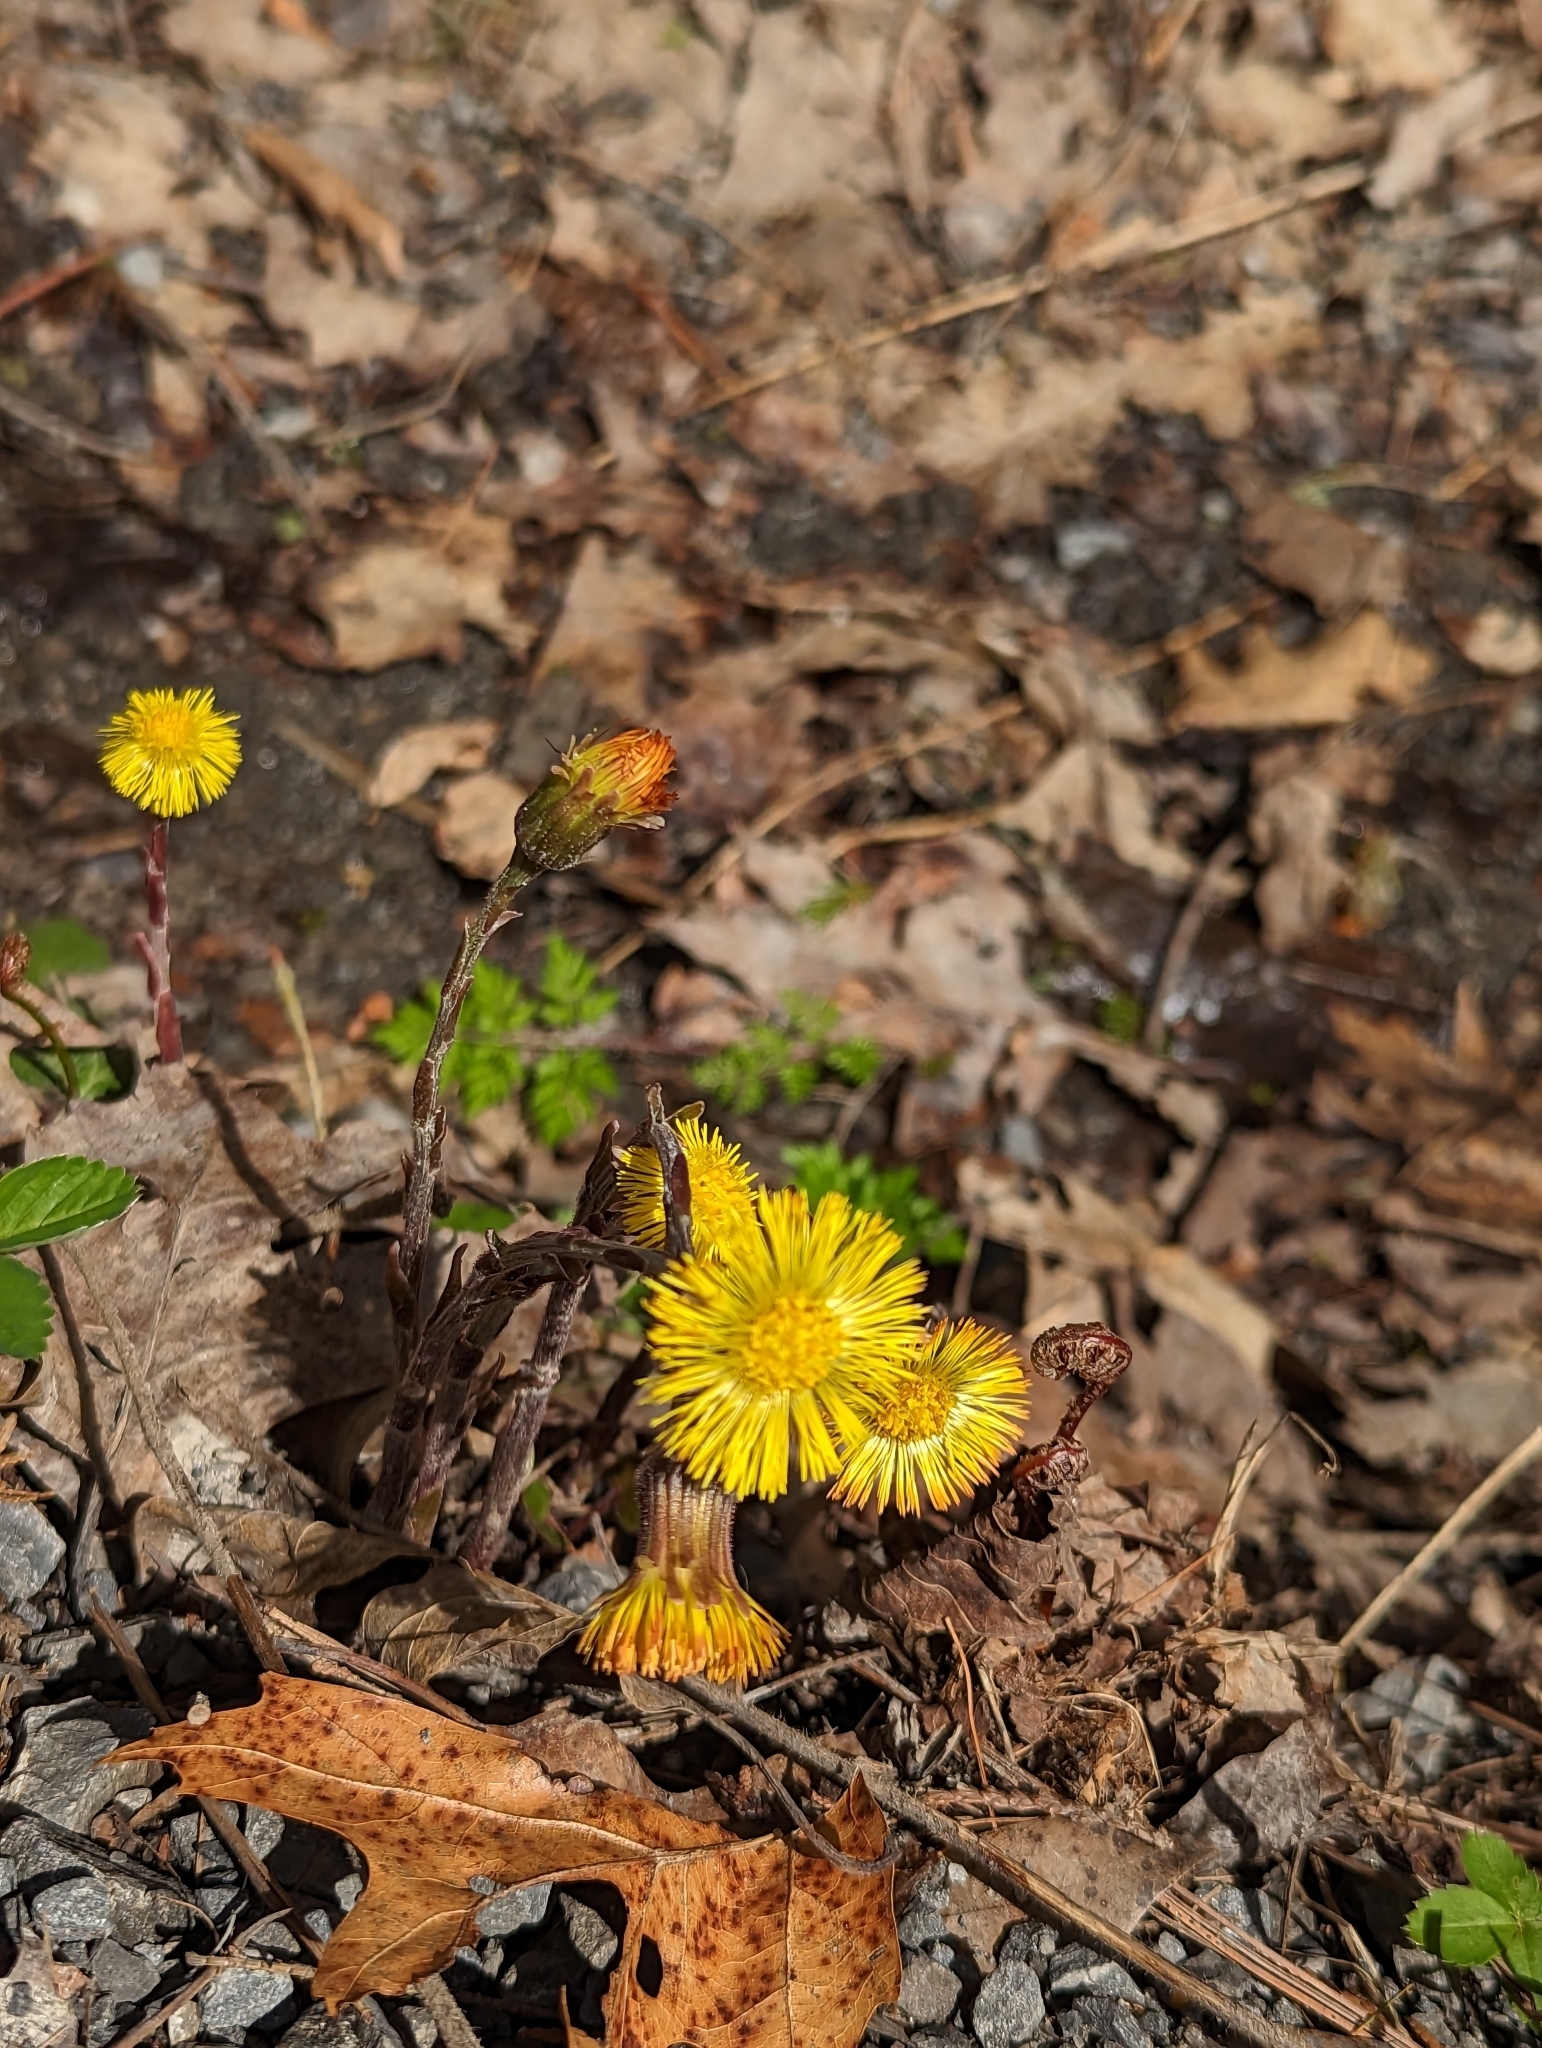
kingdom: Plantae
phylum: Tracheophyta
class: Magnoliopsida
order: Asterales
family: Asteraceae
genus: Tussilago
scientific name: Tussilago farfara
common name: Coltsfoot
